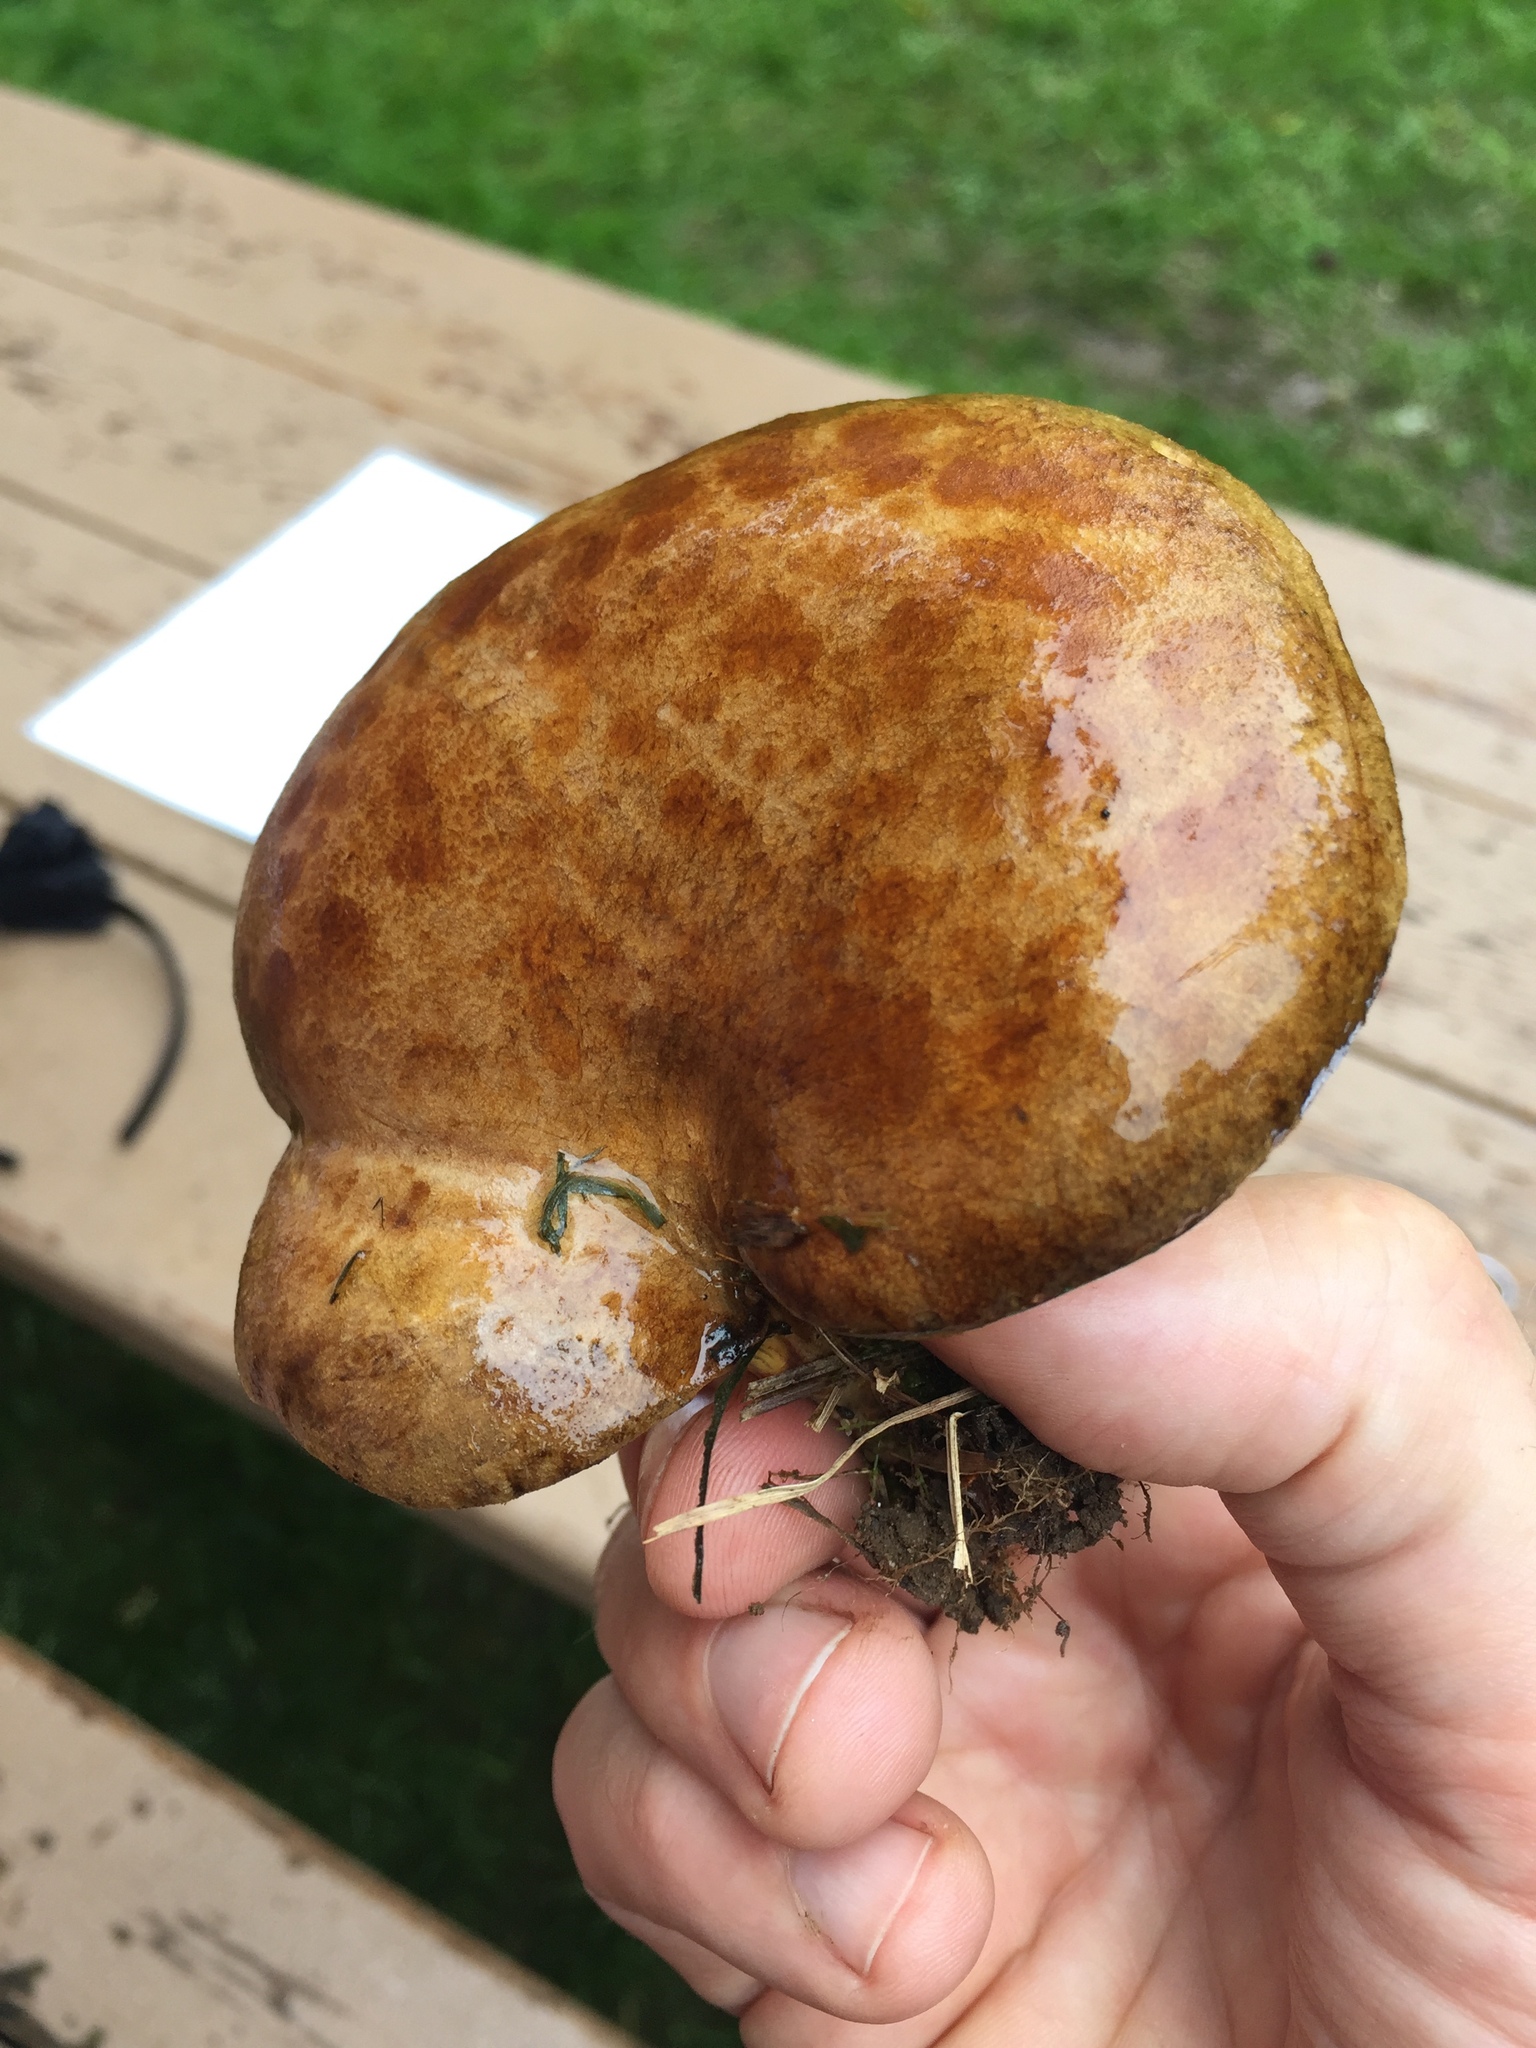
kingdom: Fungi
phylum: Basidiomycota
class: Agaricomycetes
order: Boletales
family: Boletinellaceae
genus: Boletinellus
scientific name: Boletinellus merulioides
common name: Ash tree bolete
